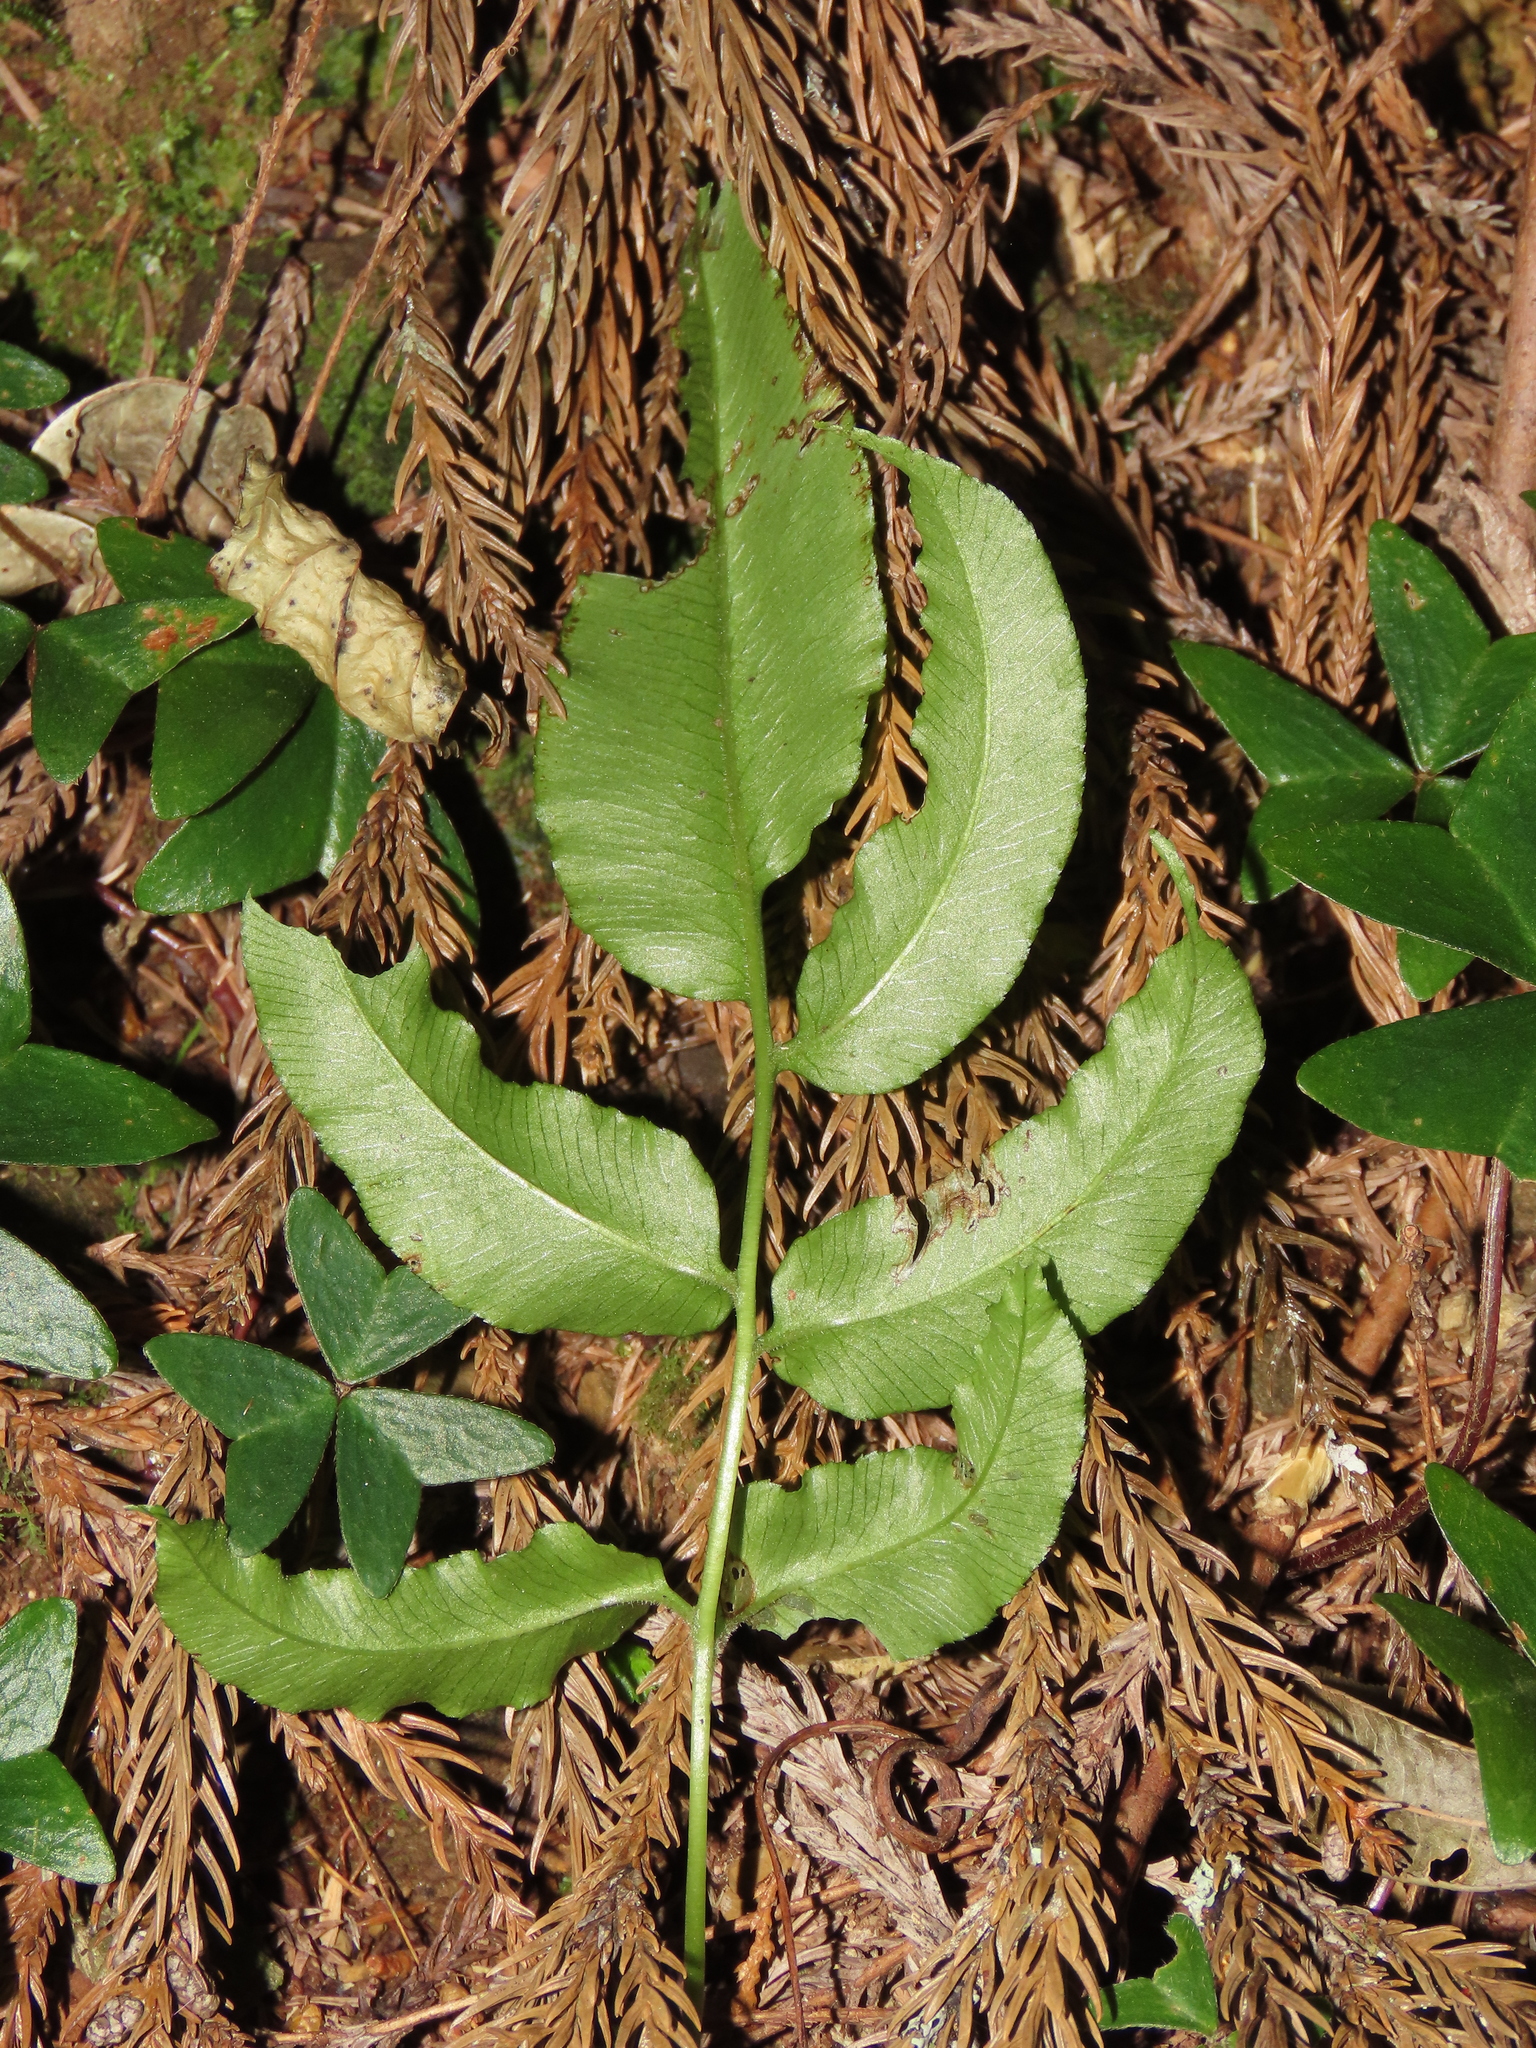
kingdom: Plantae
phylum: Tracheophyta
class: Polypodiopsida
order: Polypodiales
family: Pteridaceae
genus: Coniogramme
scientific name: Coniogramme intermedia
